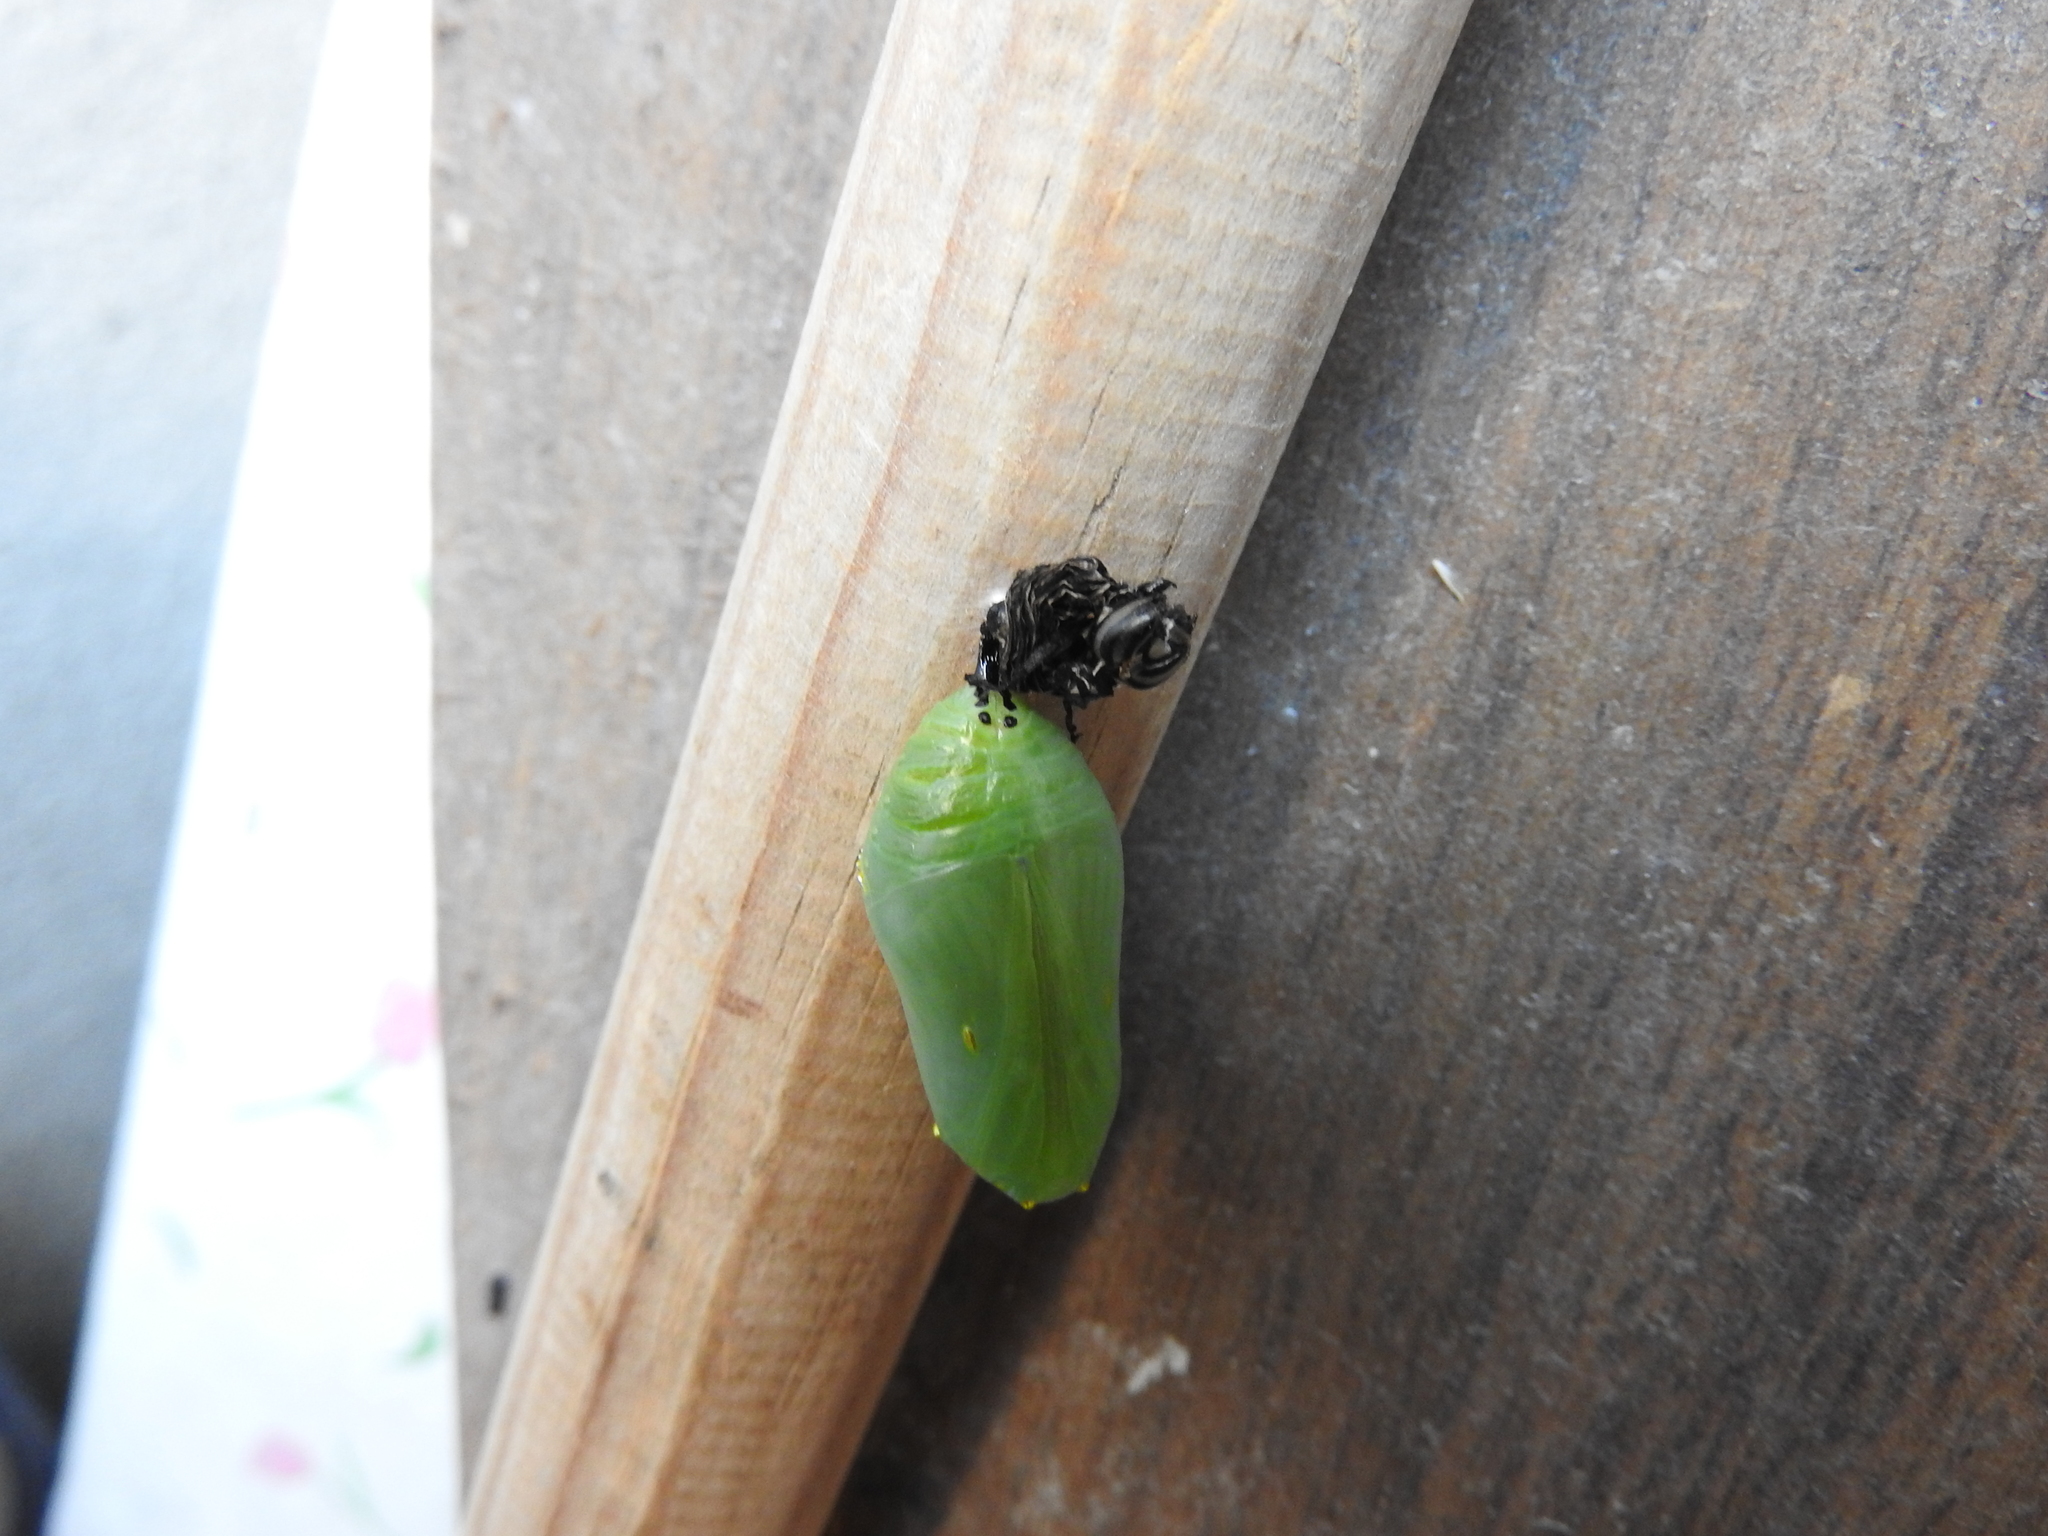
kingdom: Animalia
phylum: Arthropoda
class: Insecta
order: Lepidoptera
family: Nymphalidae
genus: Danaus
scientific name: Danaus plexippus
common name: Monarch
